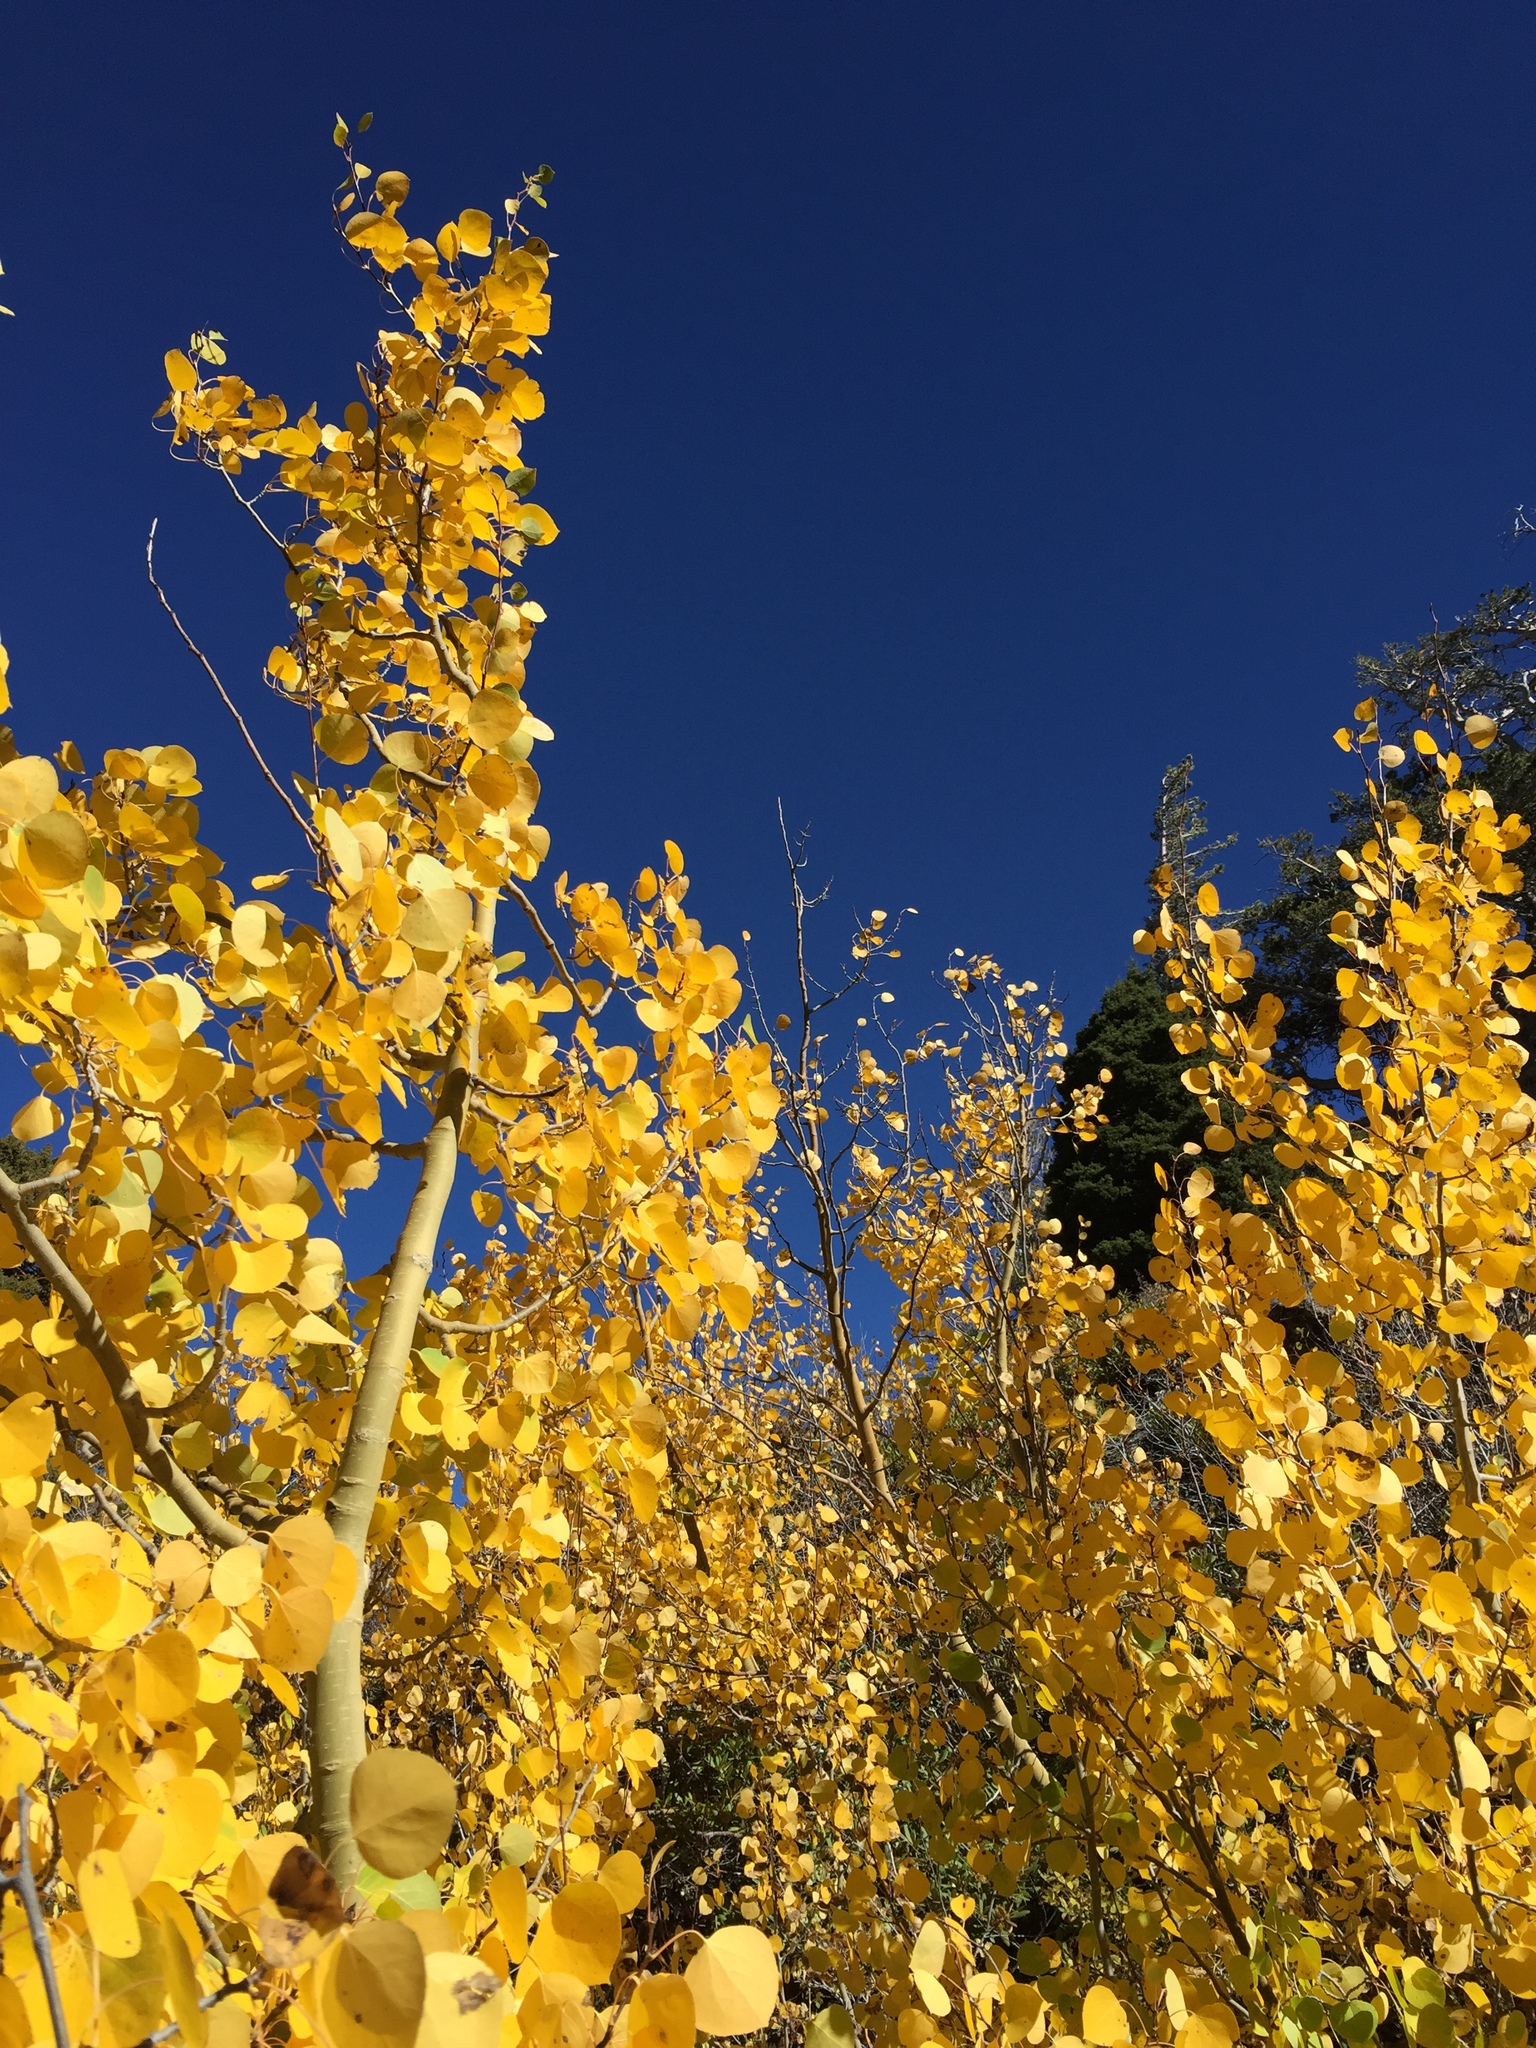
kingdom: Plantae
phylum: Tracheophyta
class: Magnoliopsida
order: Malpighiales
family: Salicaceae
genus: Populus
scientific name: Populus tremuloides
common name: Quaking aspen
